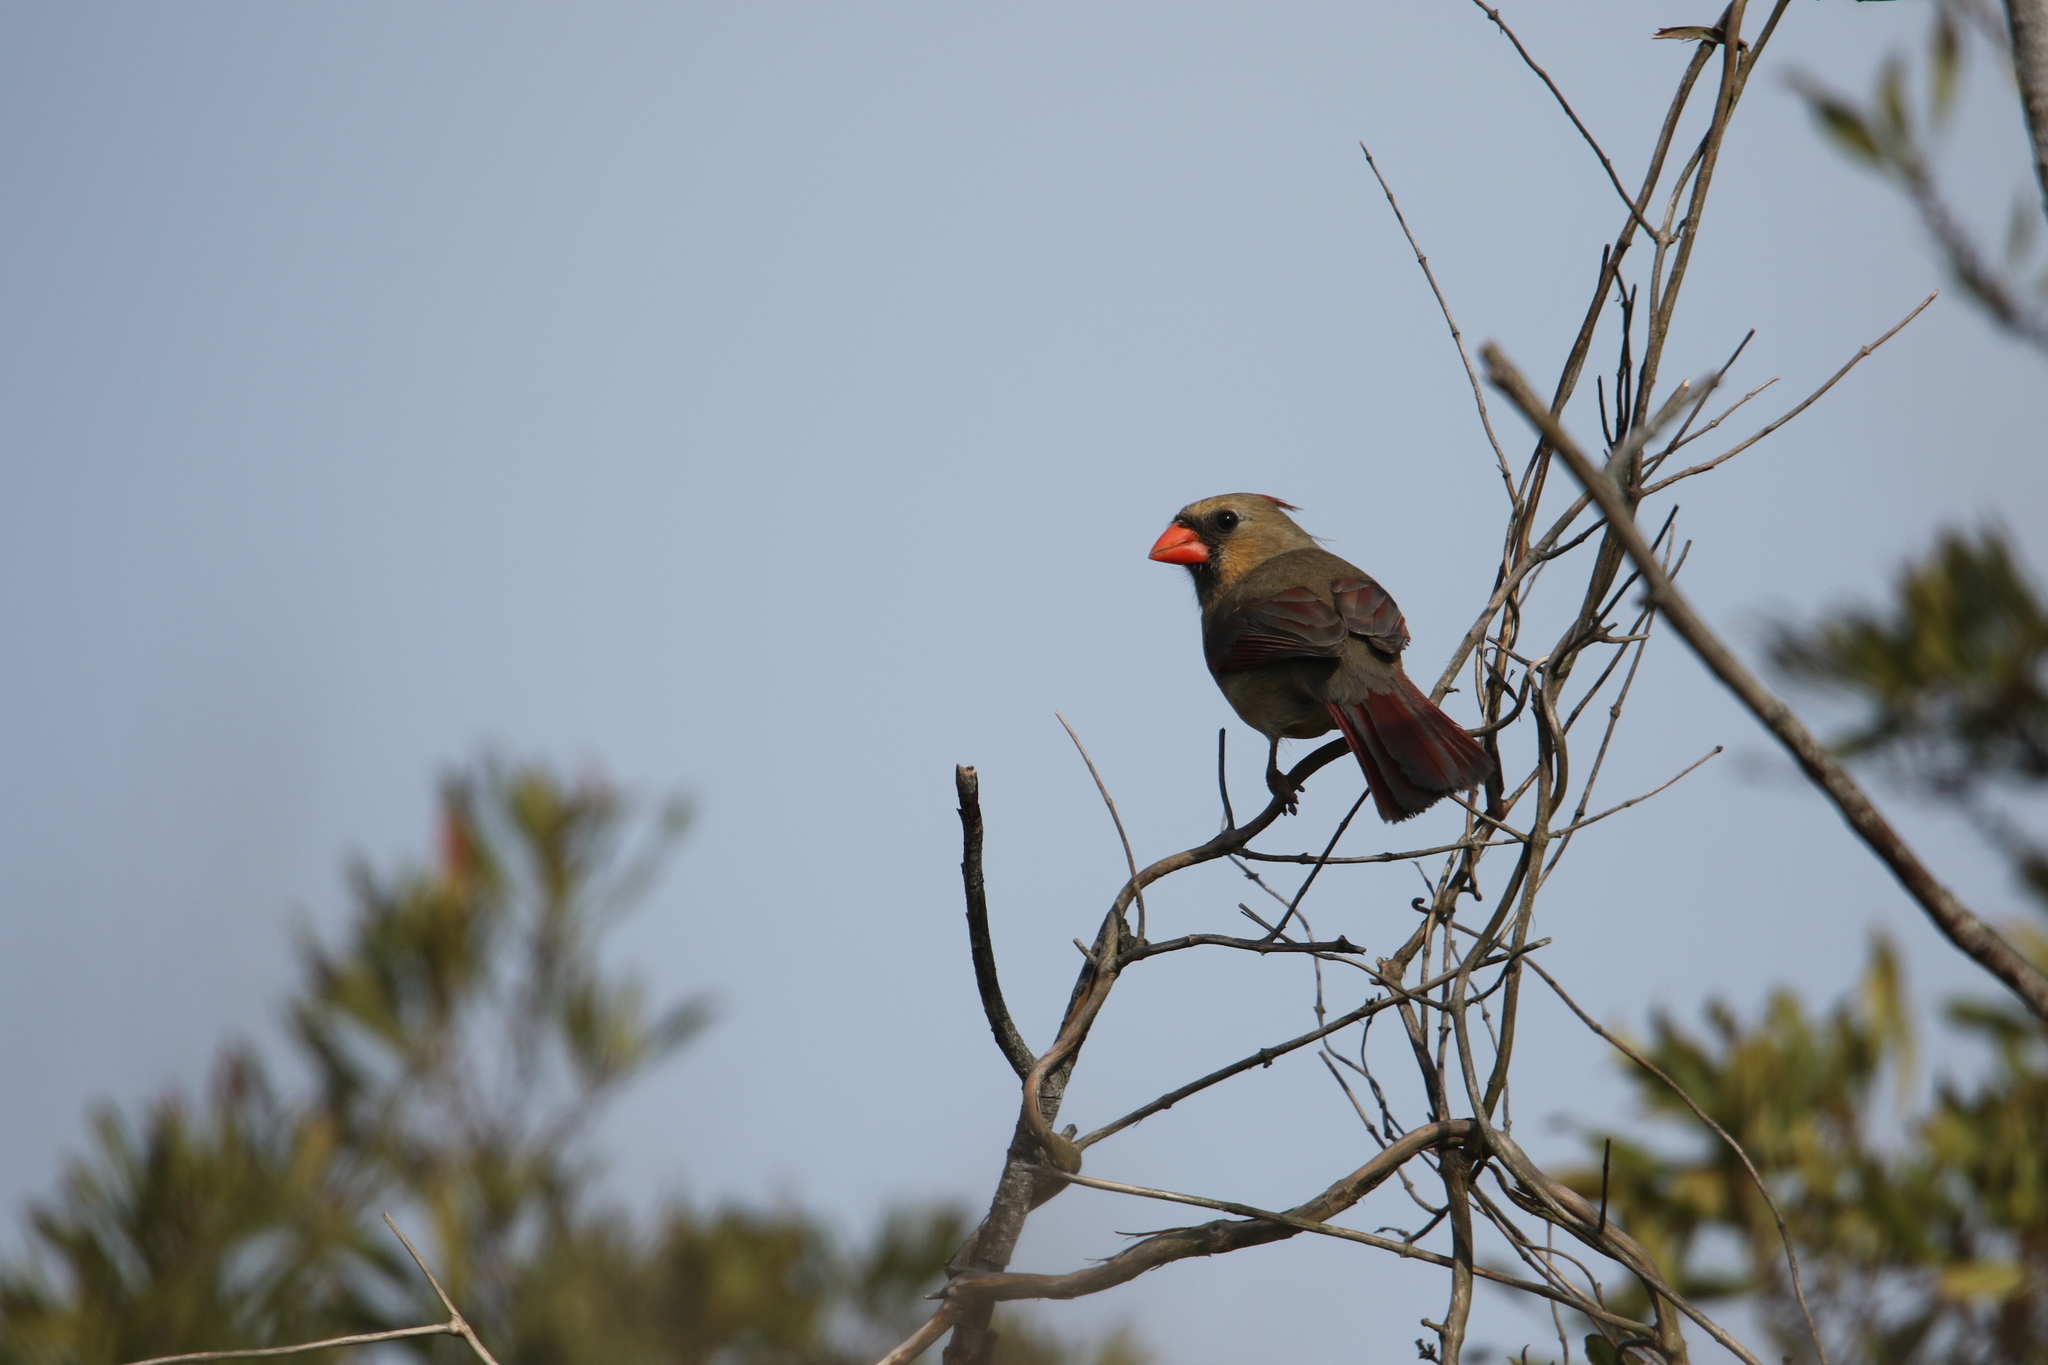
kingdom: Animalia
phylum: Chordata
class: Aves
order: Passeriformes
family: Cardinalidae
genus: Cardinalis
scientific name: Cardinalis cardinalis
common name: Northern cardinal
